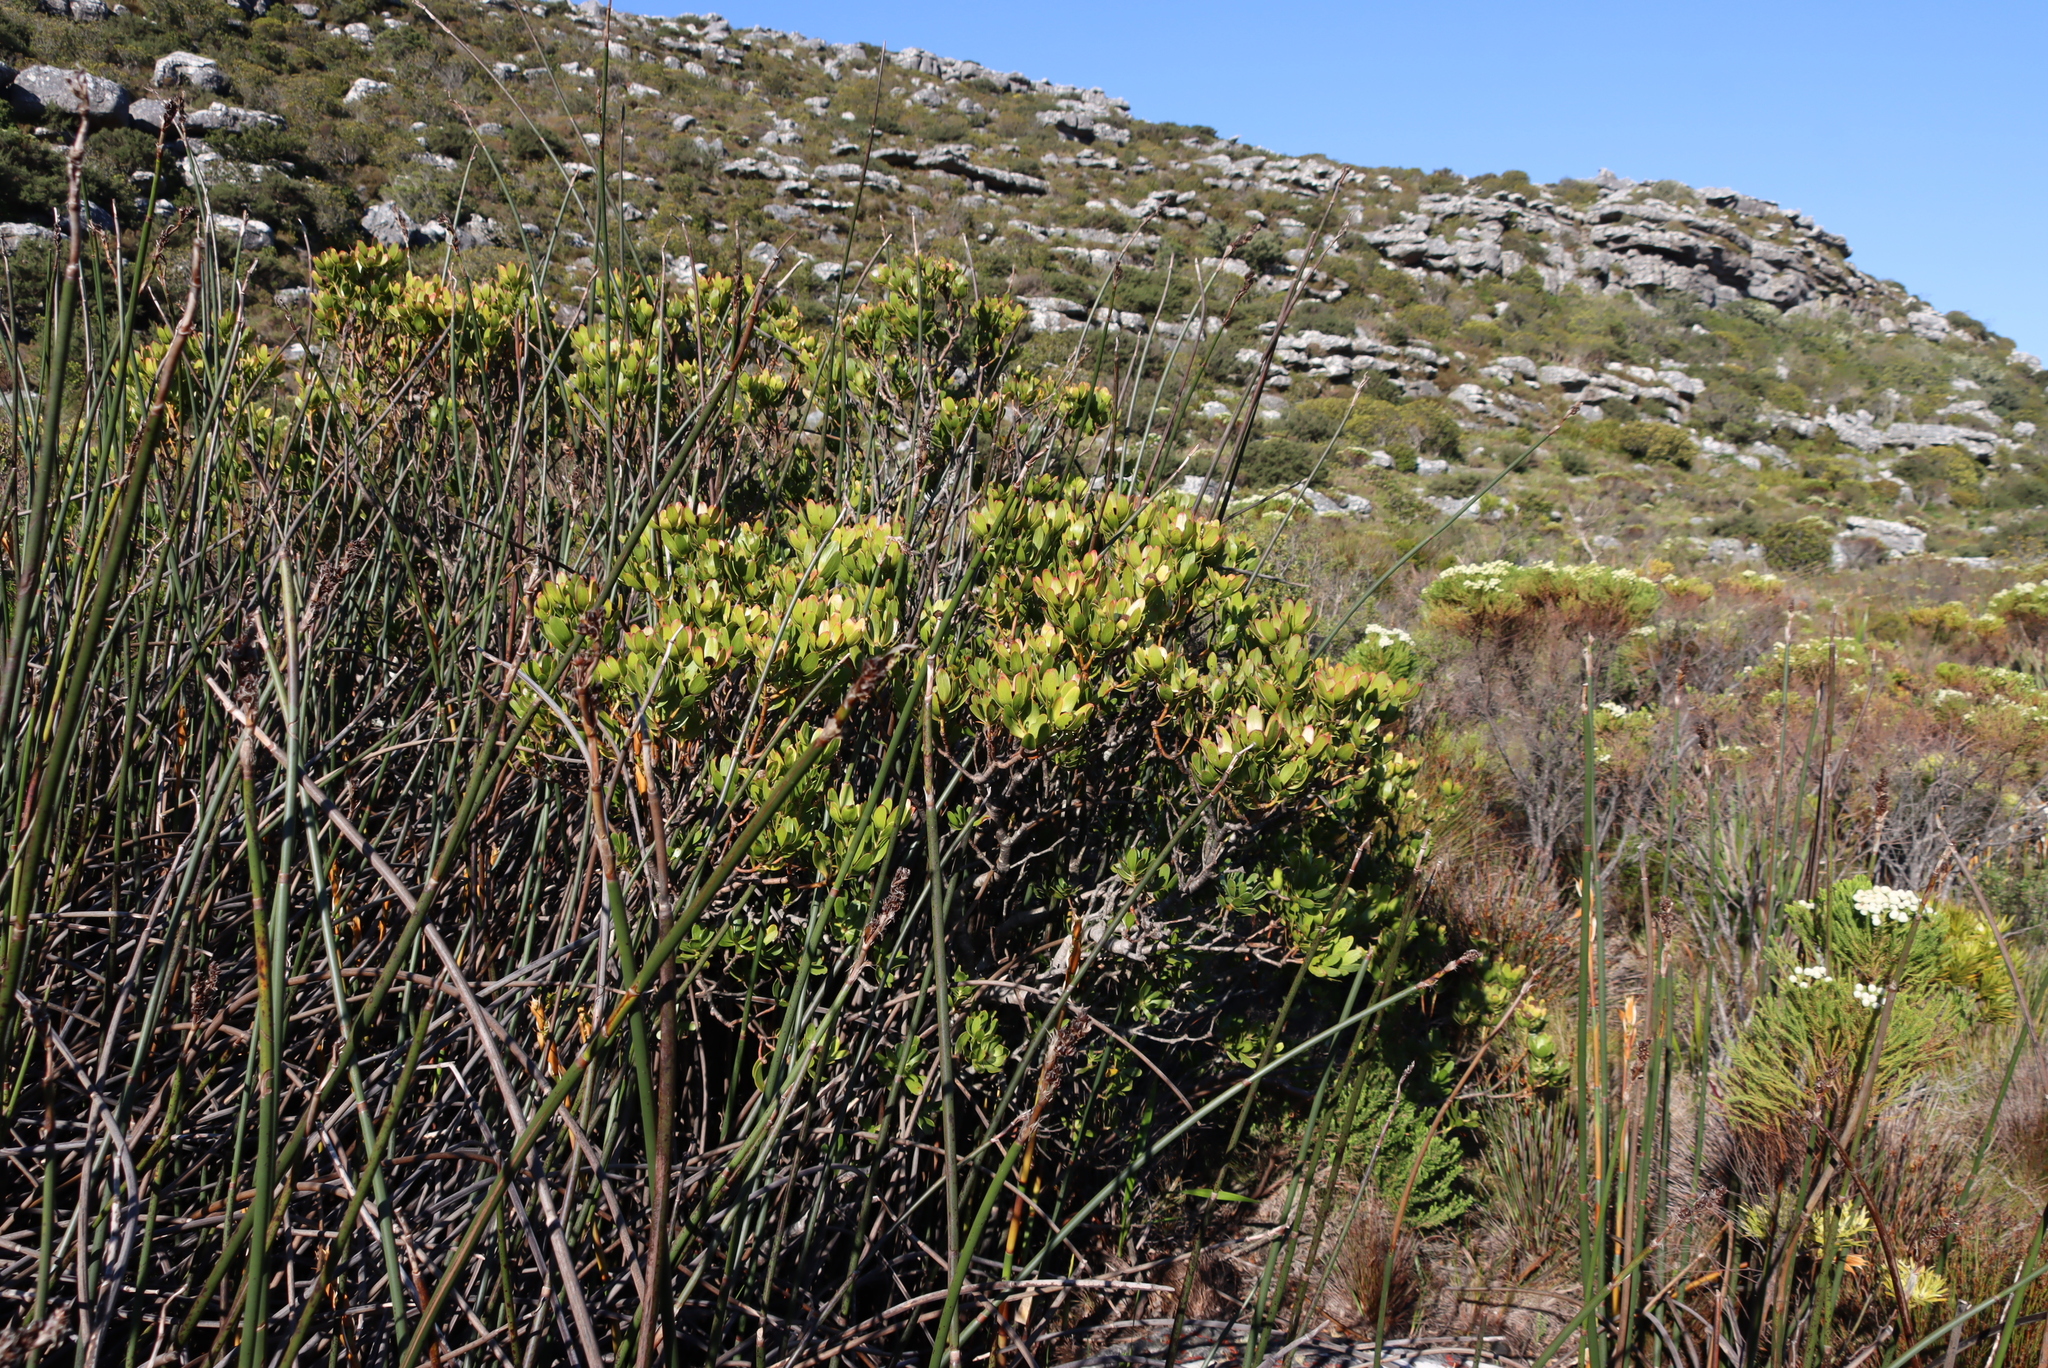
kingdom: Plantae
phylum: Tracheophyta
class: Magnoliopsida
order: Proteales
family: Proteaceae
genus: Leucadendron
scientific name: Leucadendron strobilinum
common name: Mountain rose
